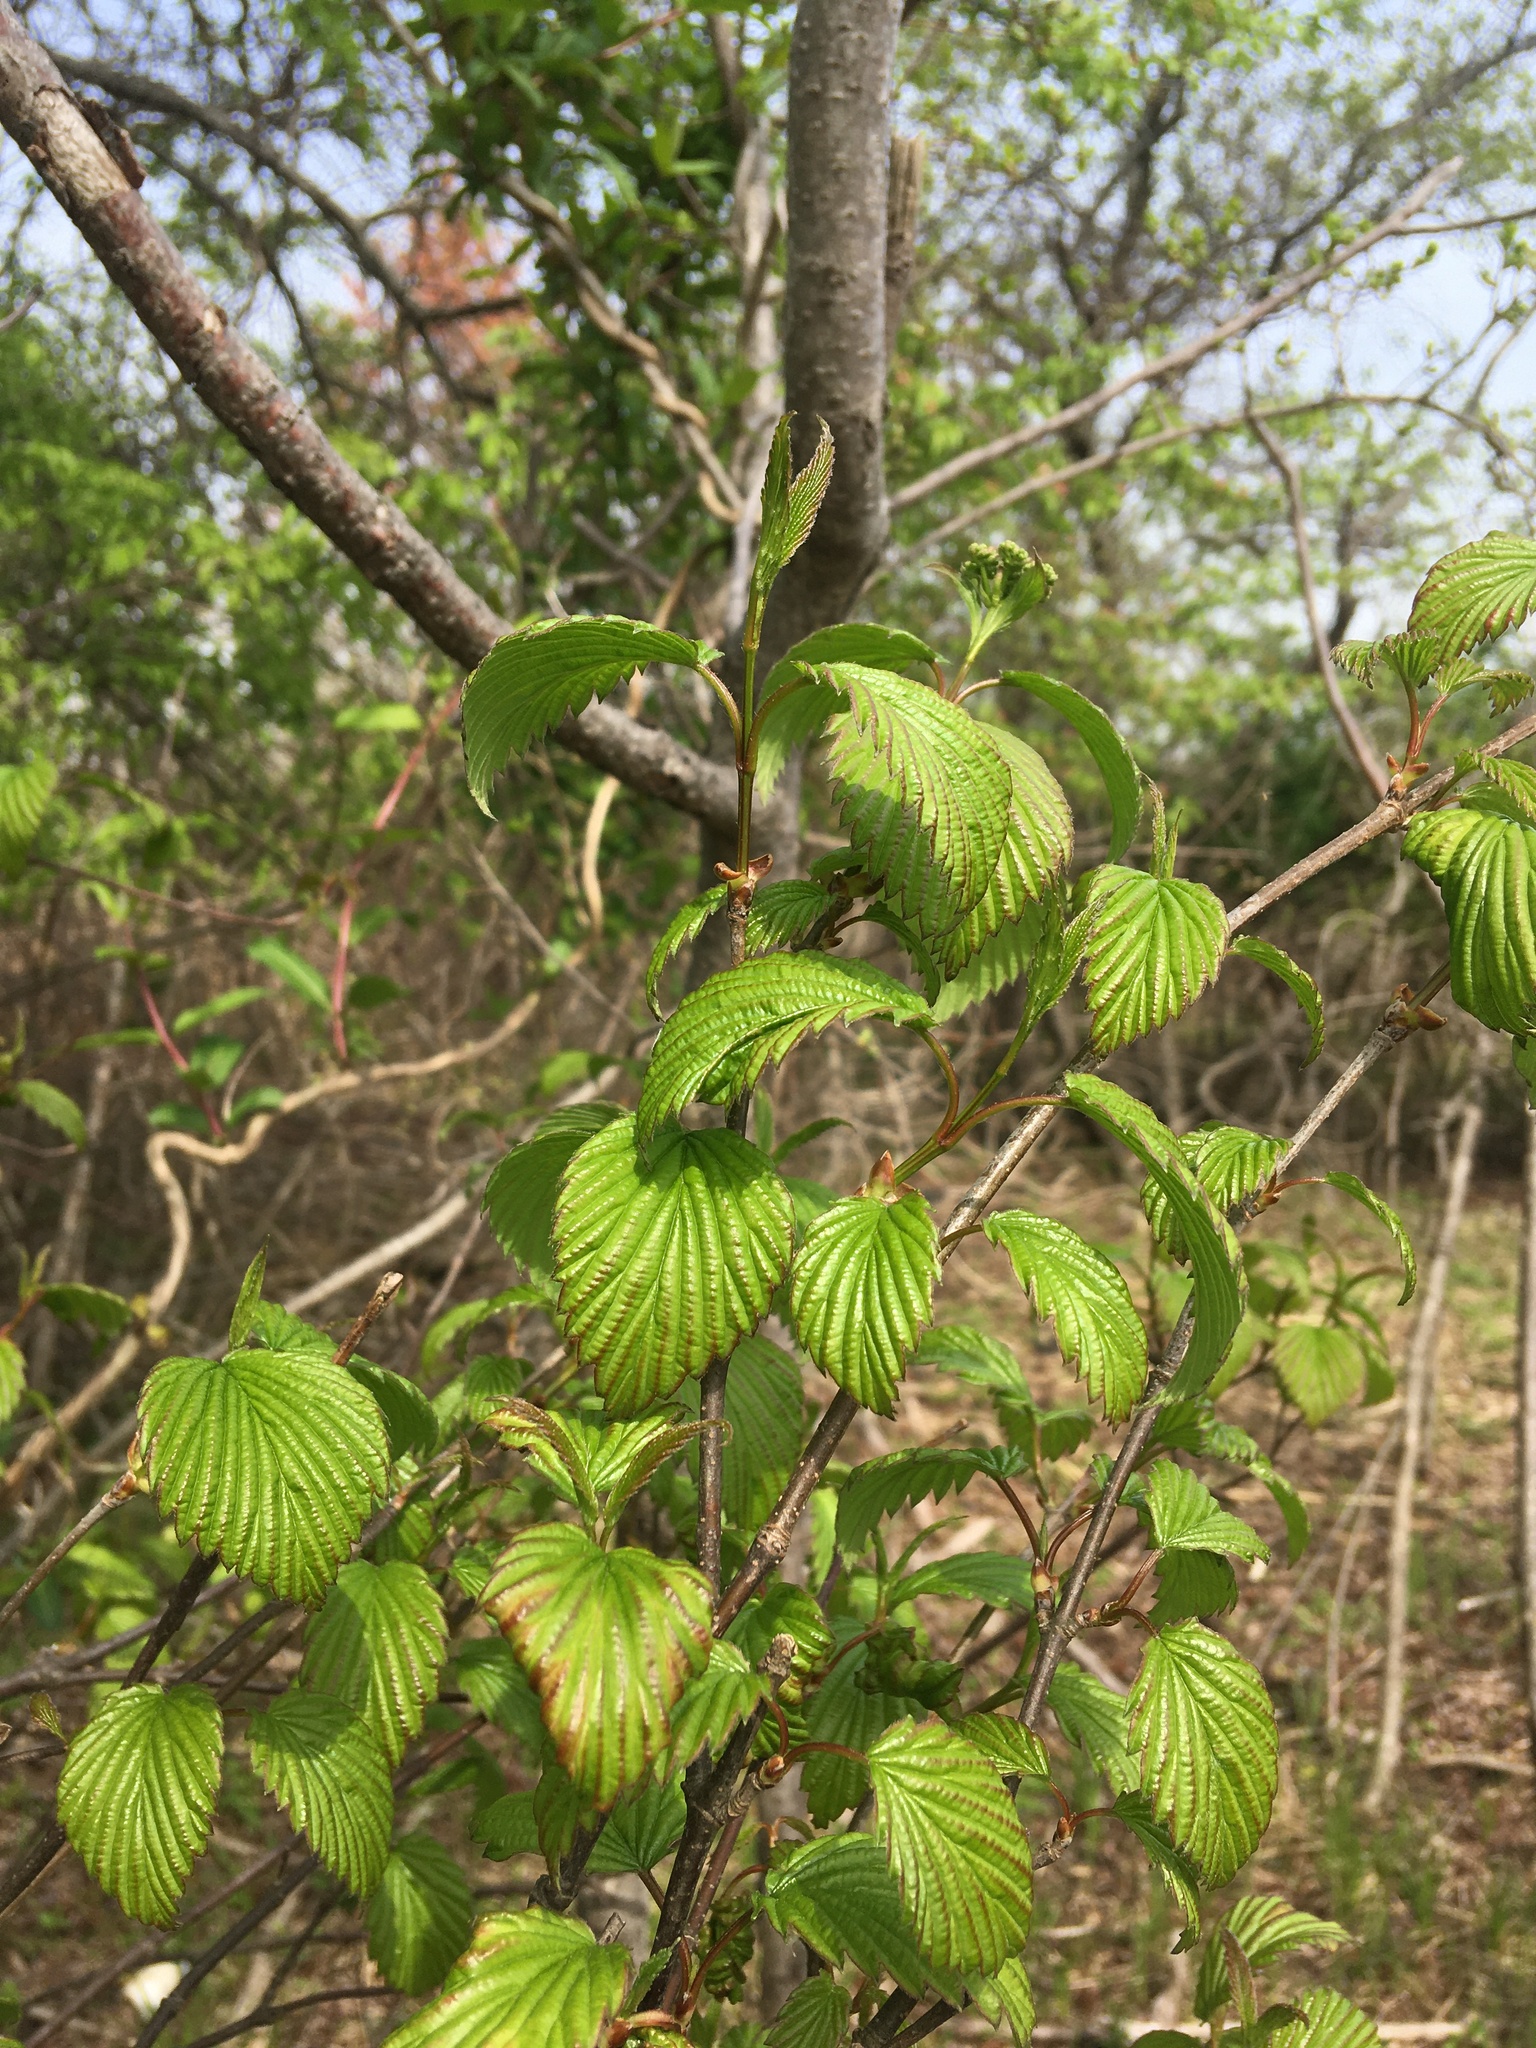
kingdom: Plantae
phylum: Tracheophyta
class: Magnoliopsida
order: Dipsacales
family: Viburnaceae
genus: Viburnum
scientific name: Viburnum dentatum
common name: Arrow-wood
